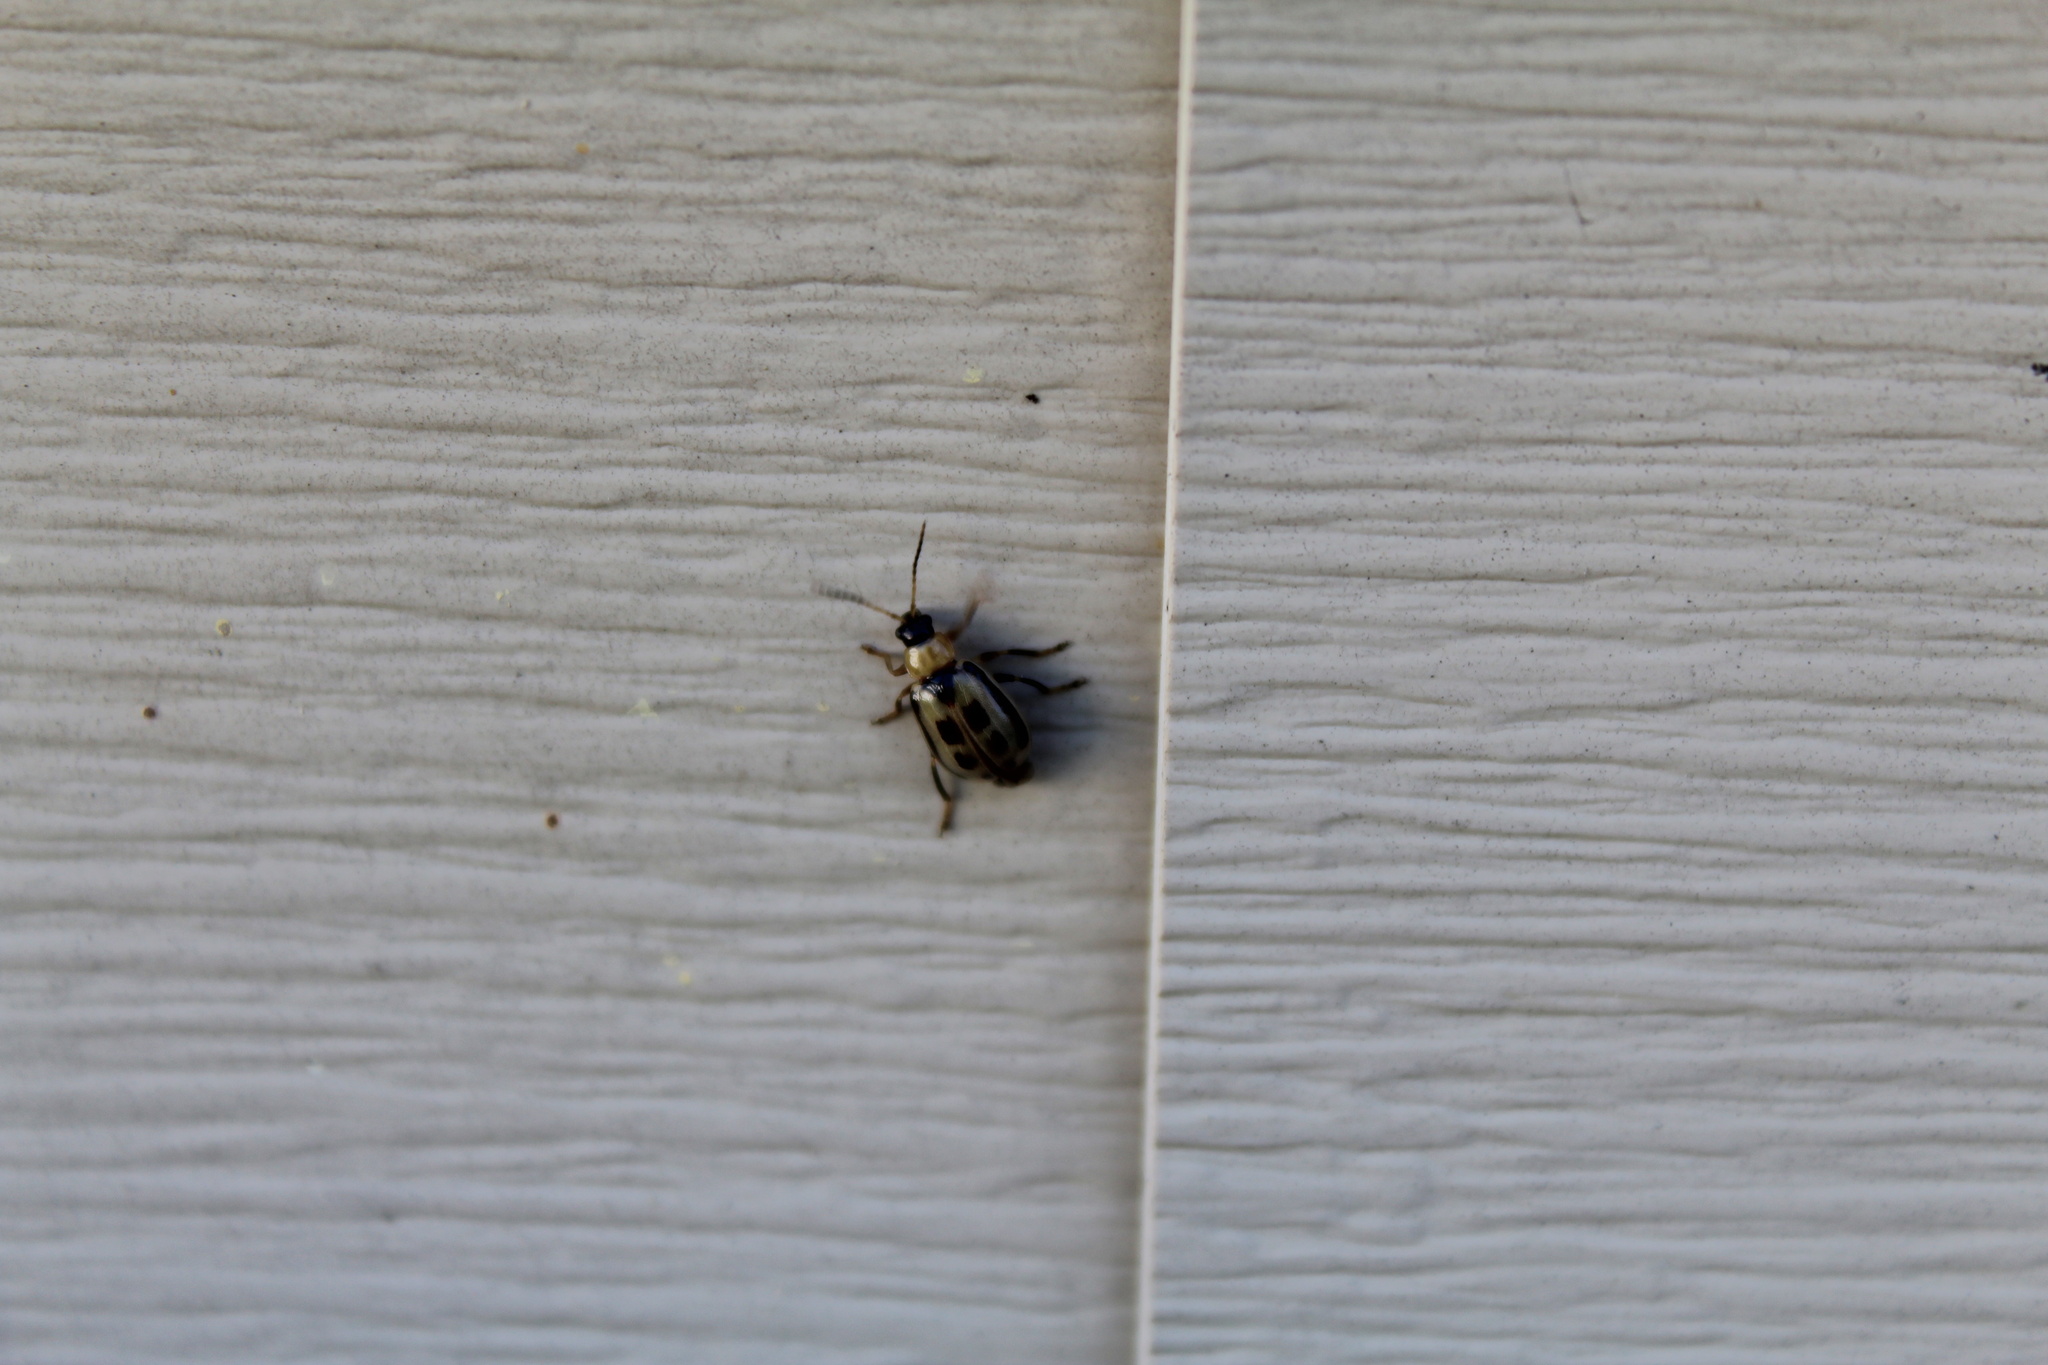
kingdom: Animalia
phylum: Arthropoda
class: Insecta
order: Coleoptera
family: Chrysomelidae
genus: Cerotoma
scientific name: Cerotoma trifurcata
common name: Bean leaf beetle
